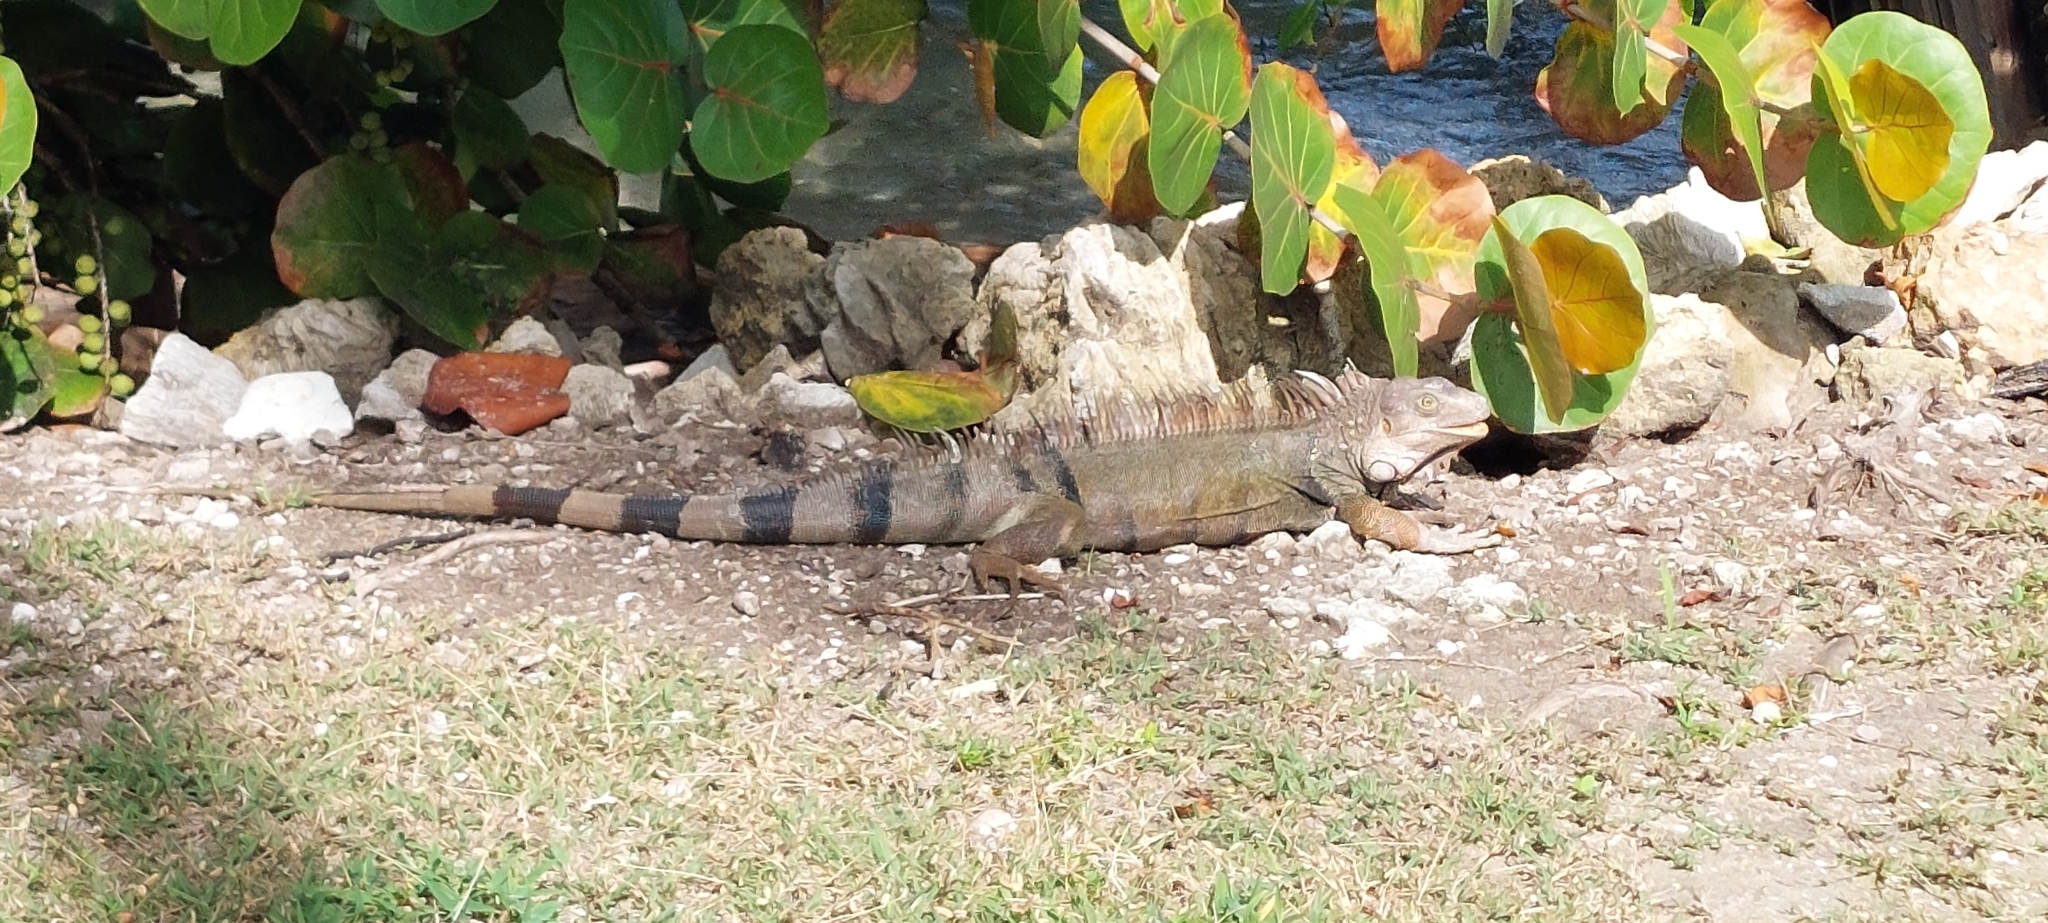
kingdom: Animalia
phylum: Chordata
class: Squamata
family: Iguanidae
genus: Iguana
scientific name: Iguana iguana
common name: Green iguana
